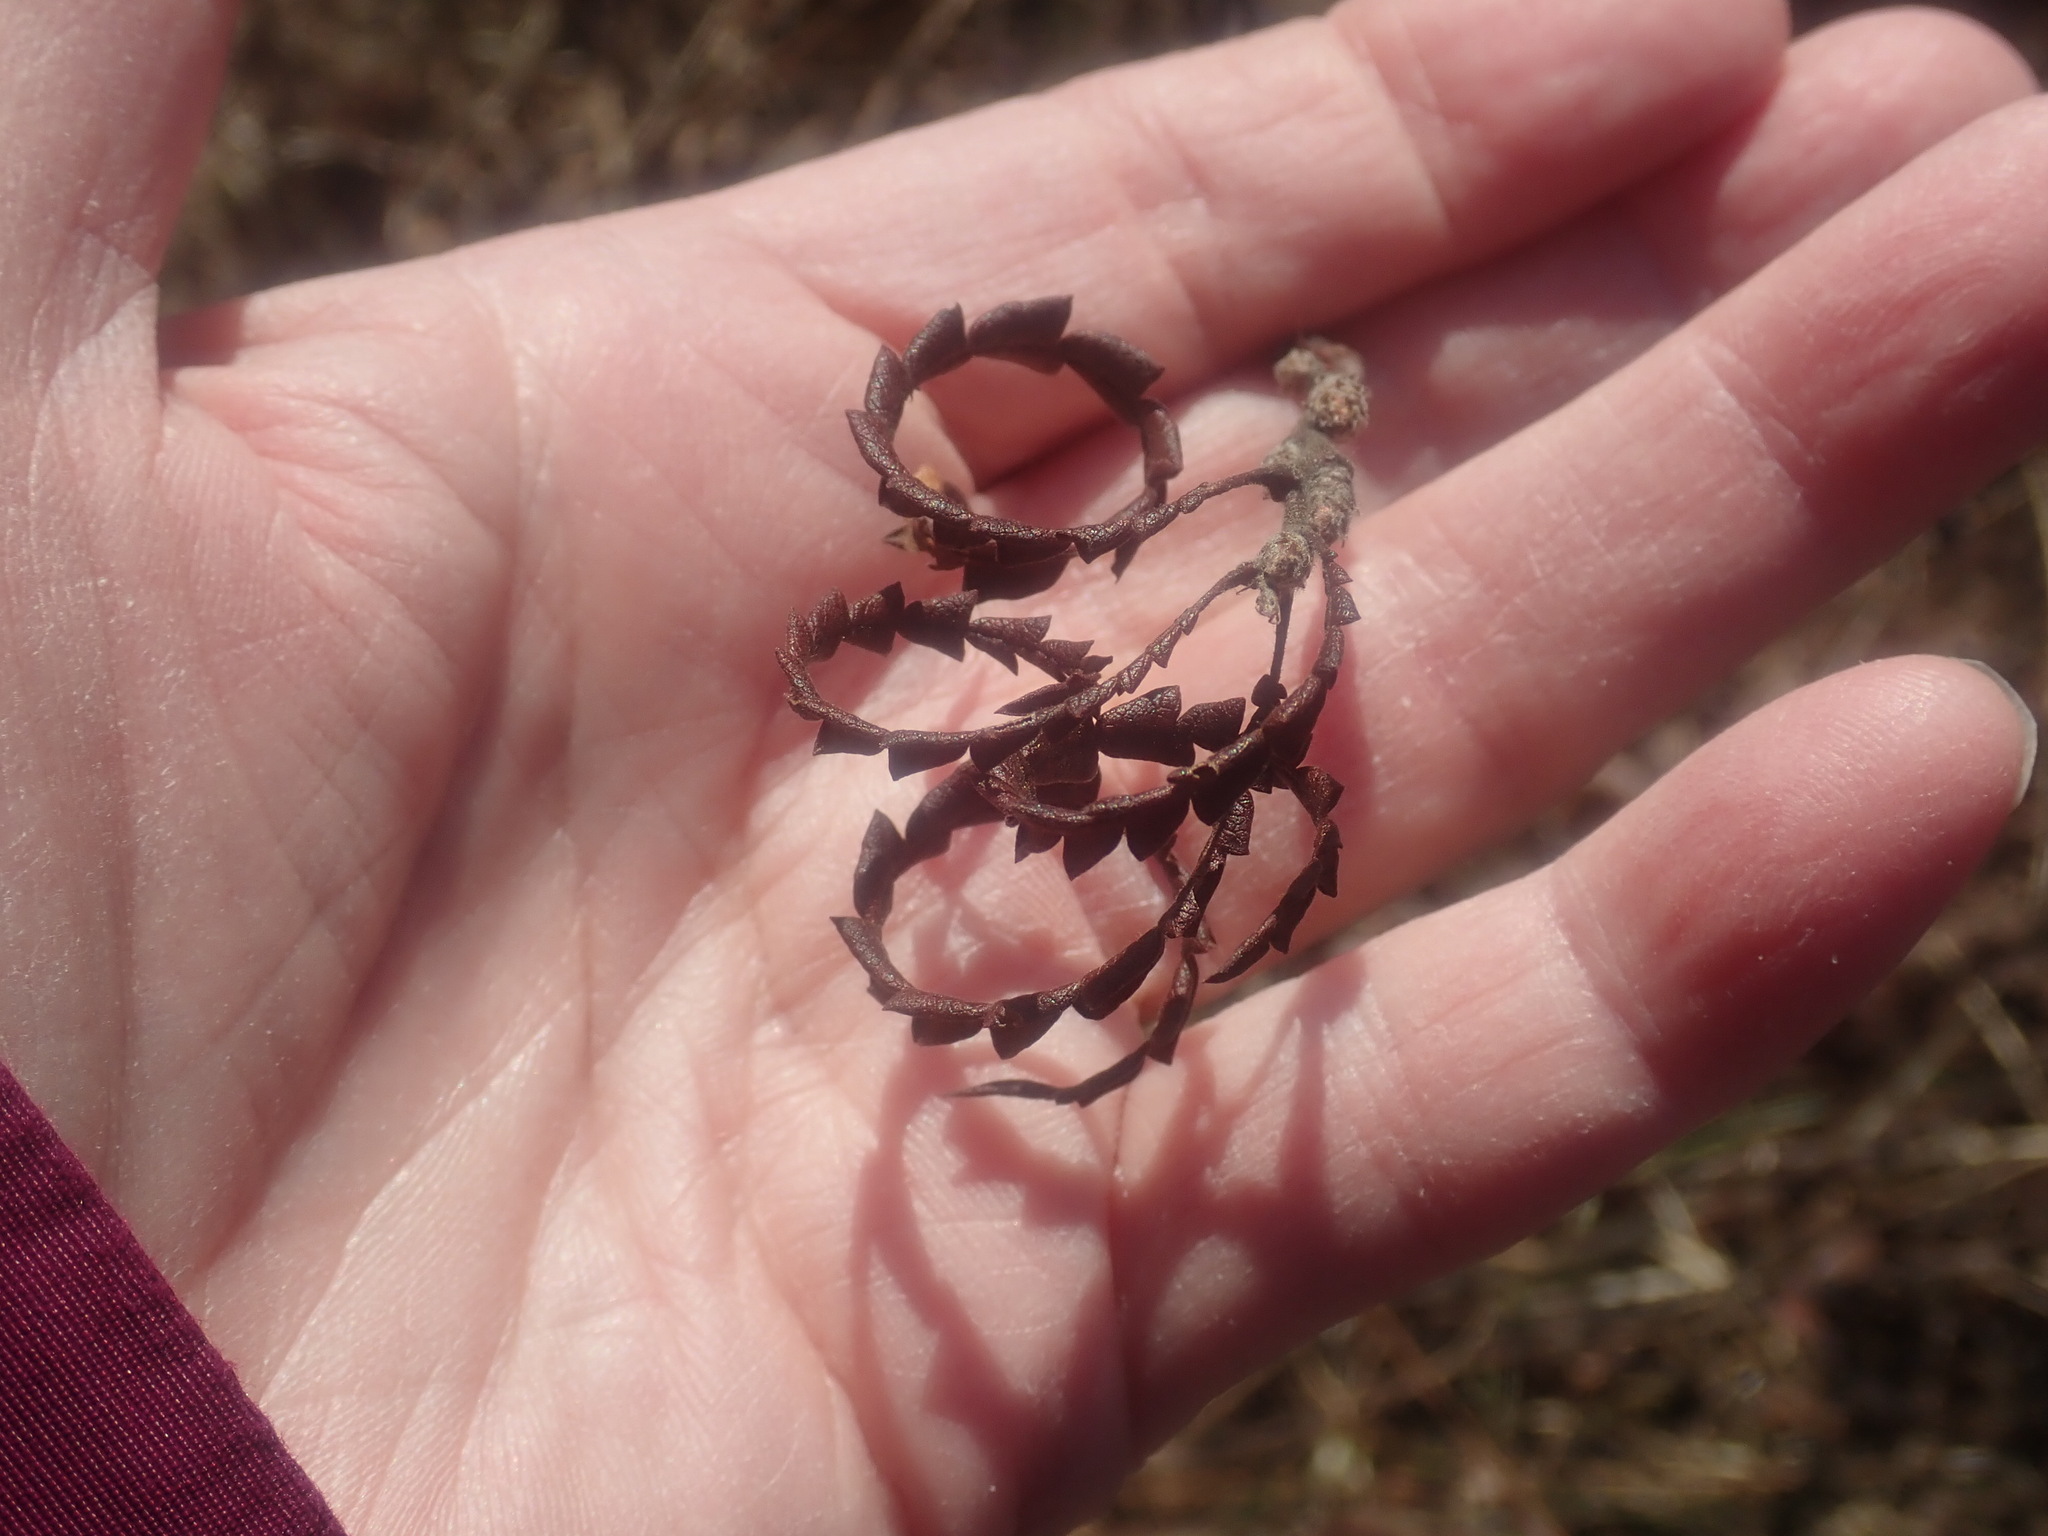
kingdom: Plantae
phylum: Tracheophyta
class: Magnoliopsida
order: Fagales
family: Myricaceae
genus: Comptonia
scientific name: Comptonia peregrina
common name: Sweet-fern
